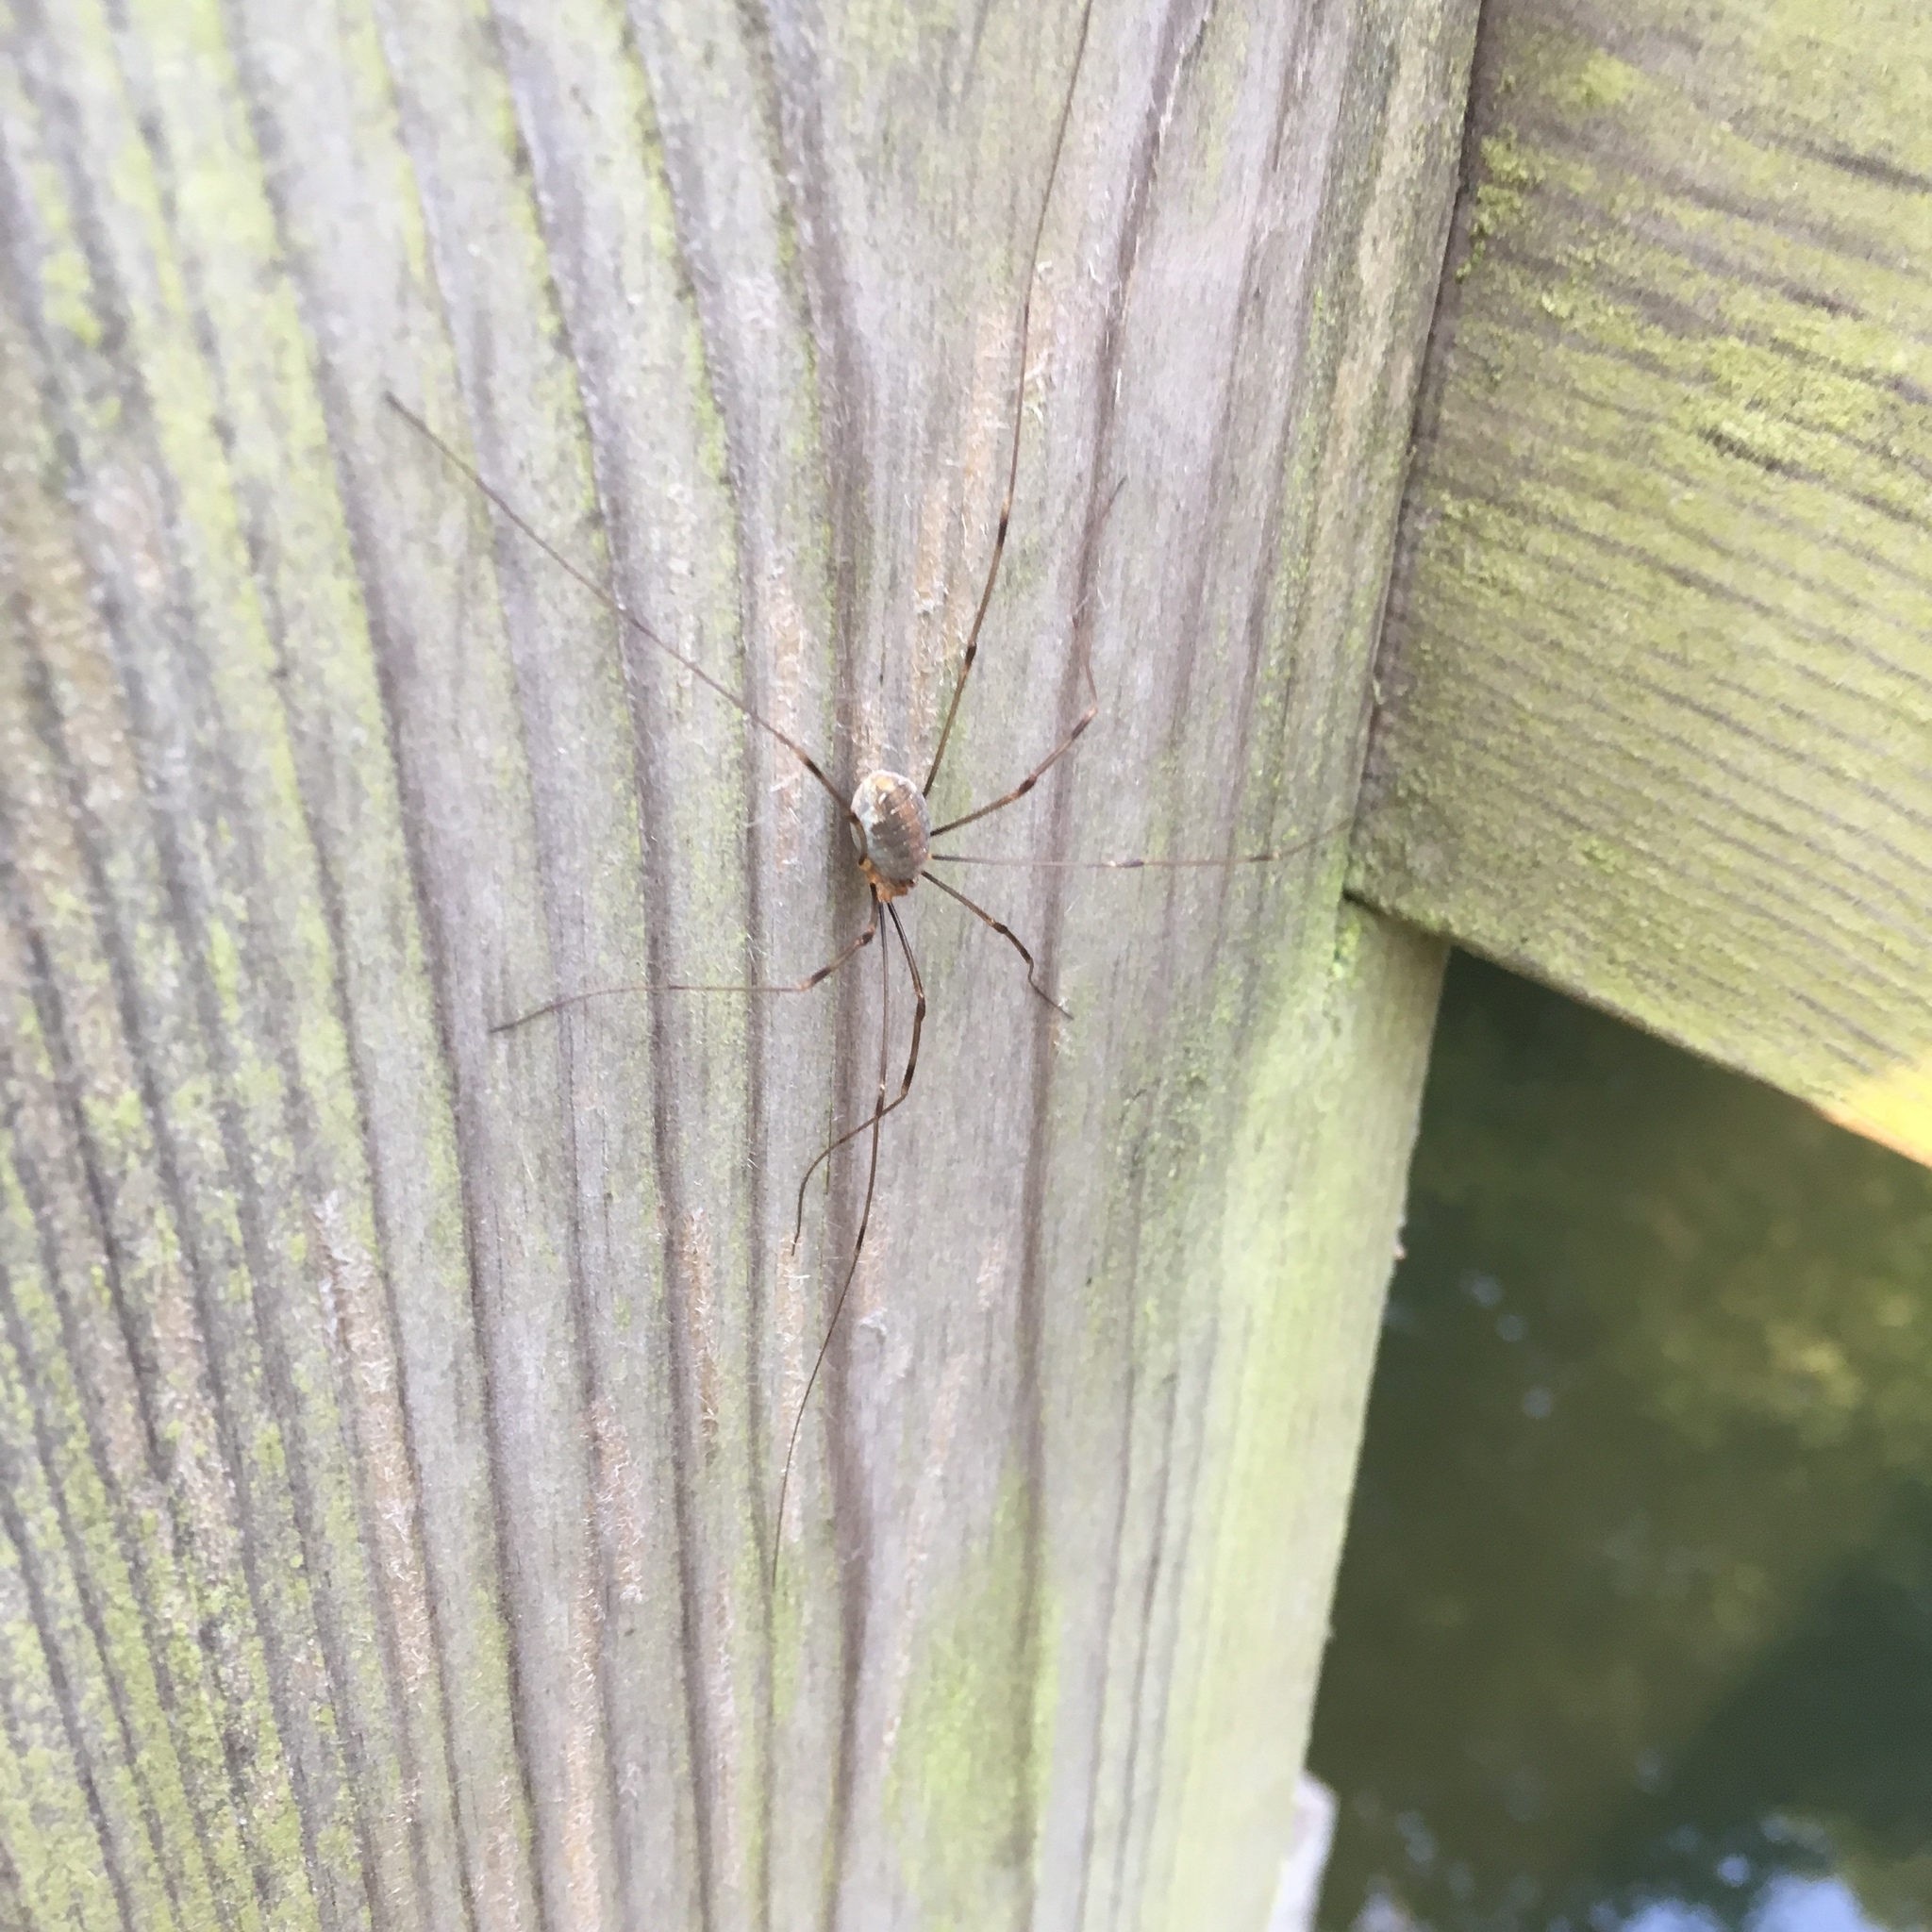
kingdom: Animalia
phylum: Arthropoda
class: Arachnida
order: Opiliones
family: Phalangiidae
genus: Opilio
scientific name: Opilio canestrinii
